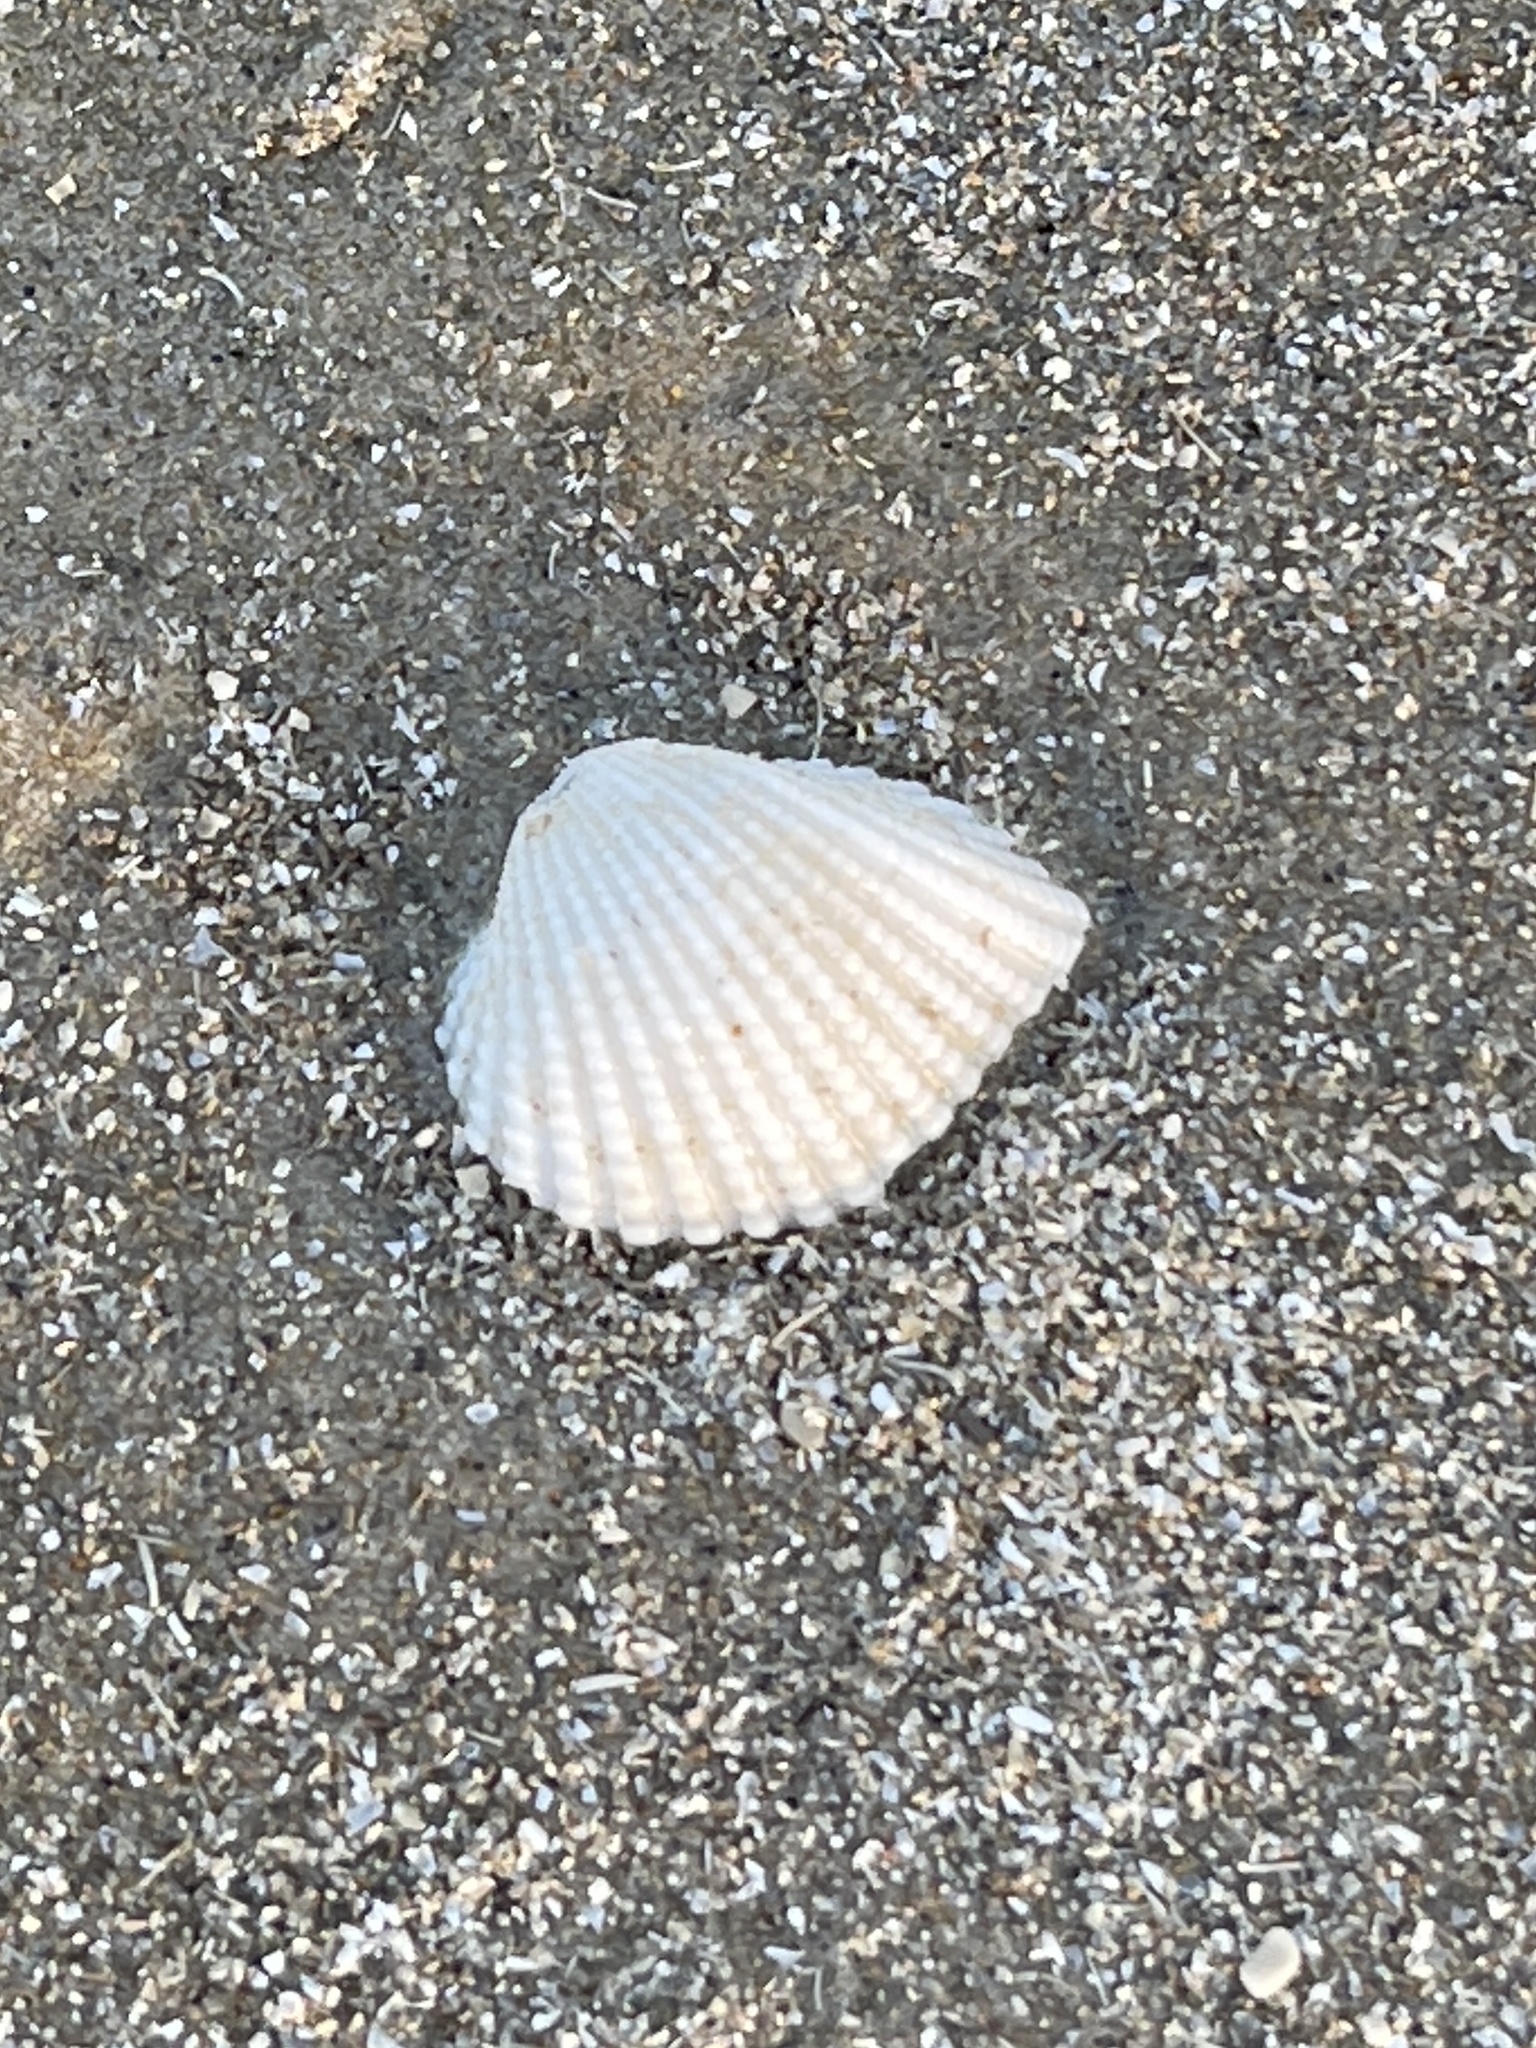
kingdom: Animalia
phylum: Mollusca
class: Bivalvia
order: Arcida
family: Arcidae
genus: Anadara
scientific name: Anadara brasiliana
